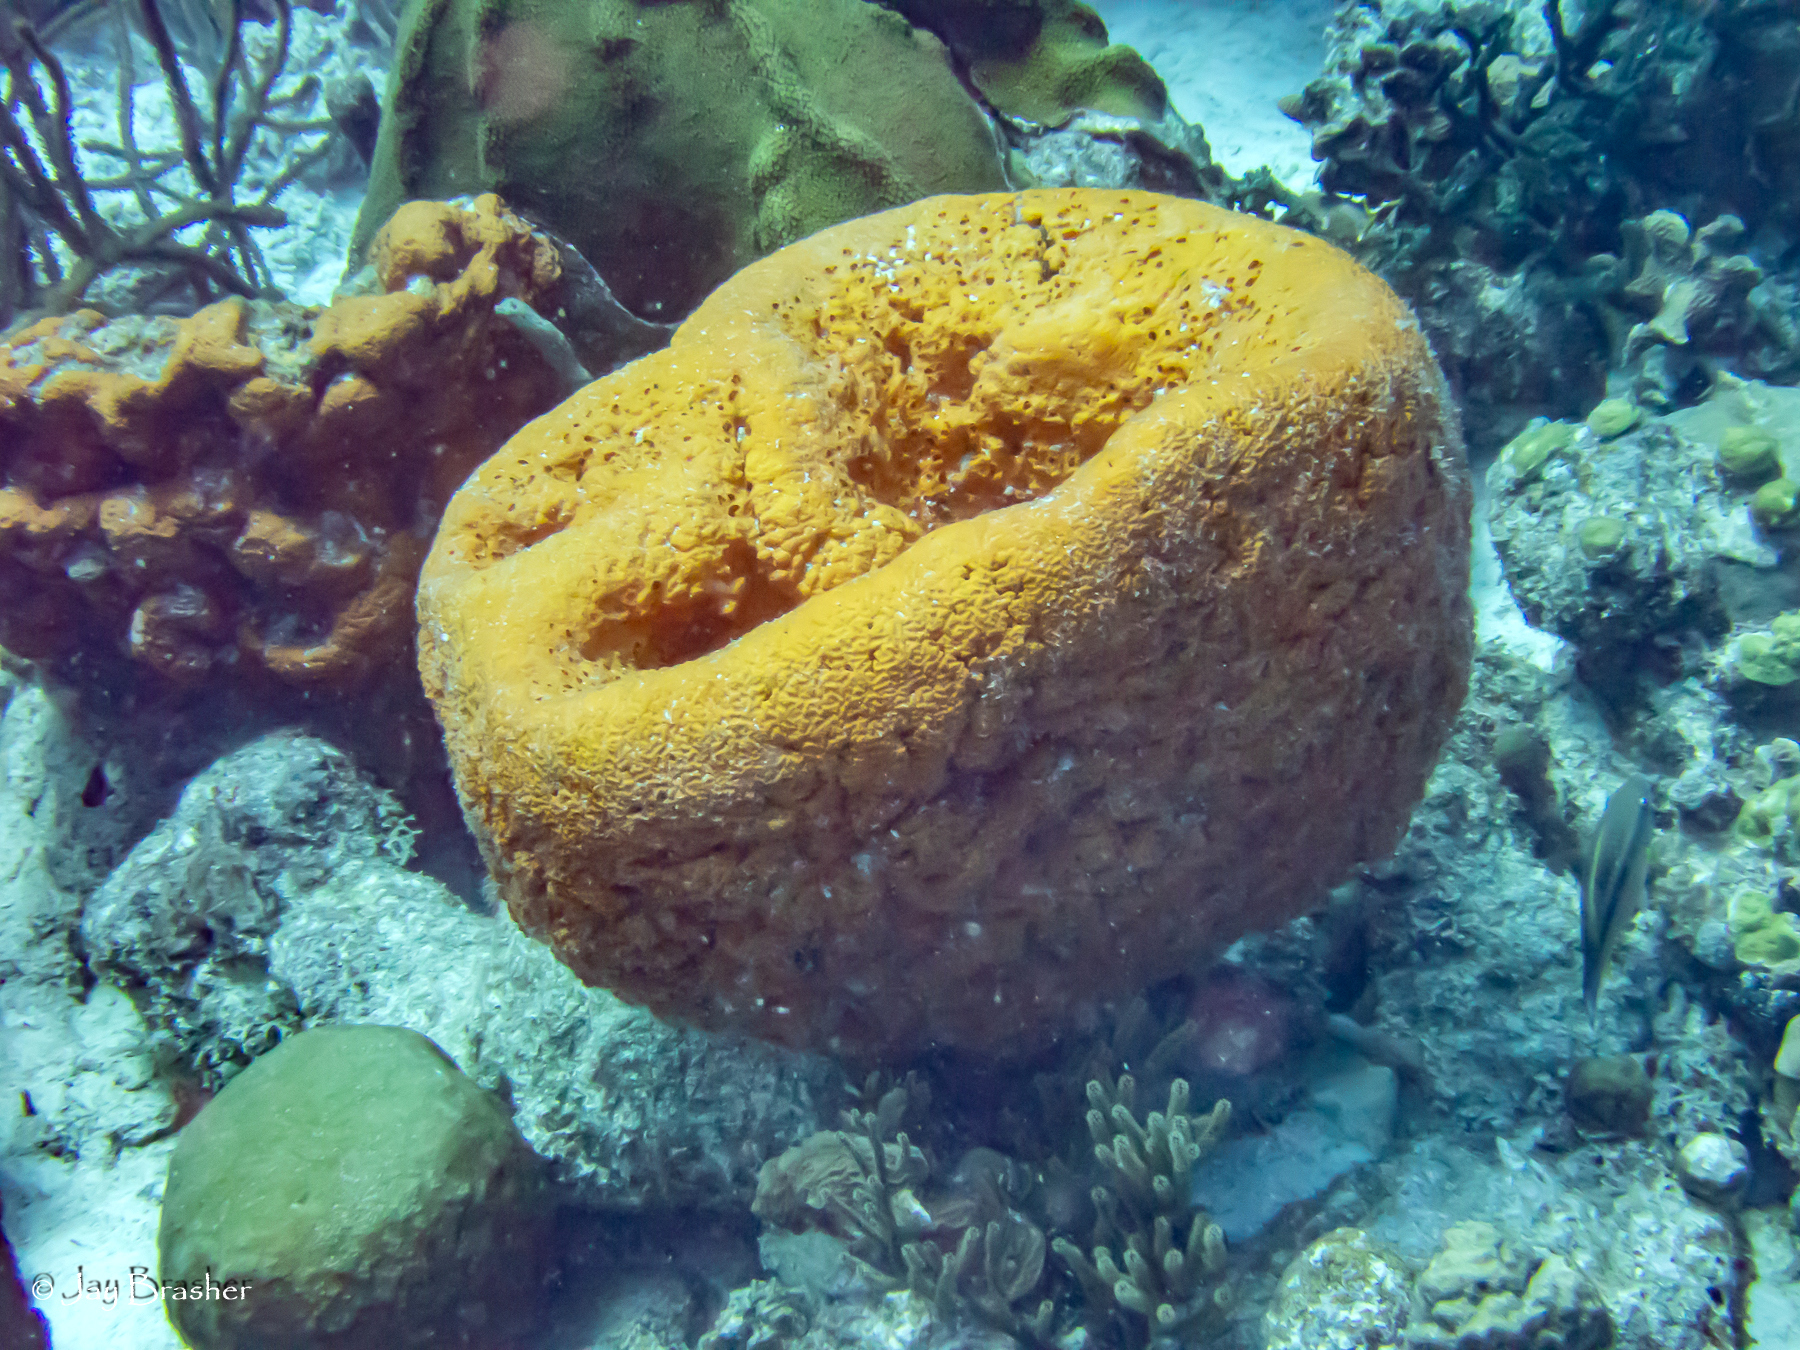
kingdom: Animalia
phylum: Porifera
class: Demospongiae
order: Agelasida
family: Agelasidae
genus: Agelas
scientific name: Agelas citrina
